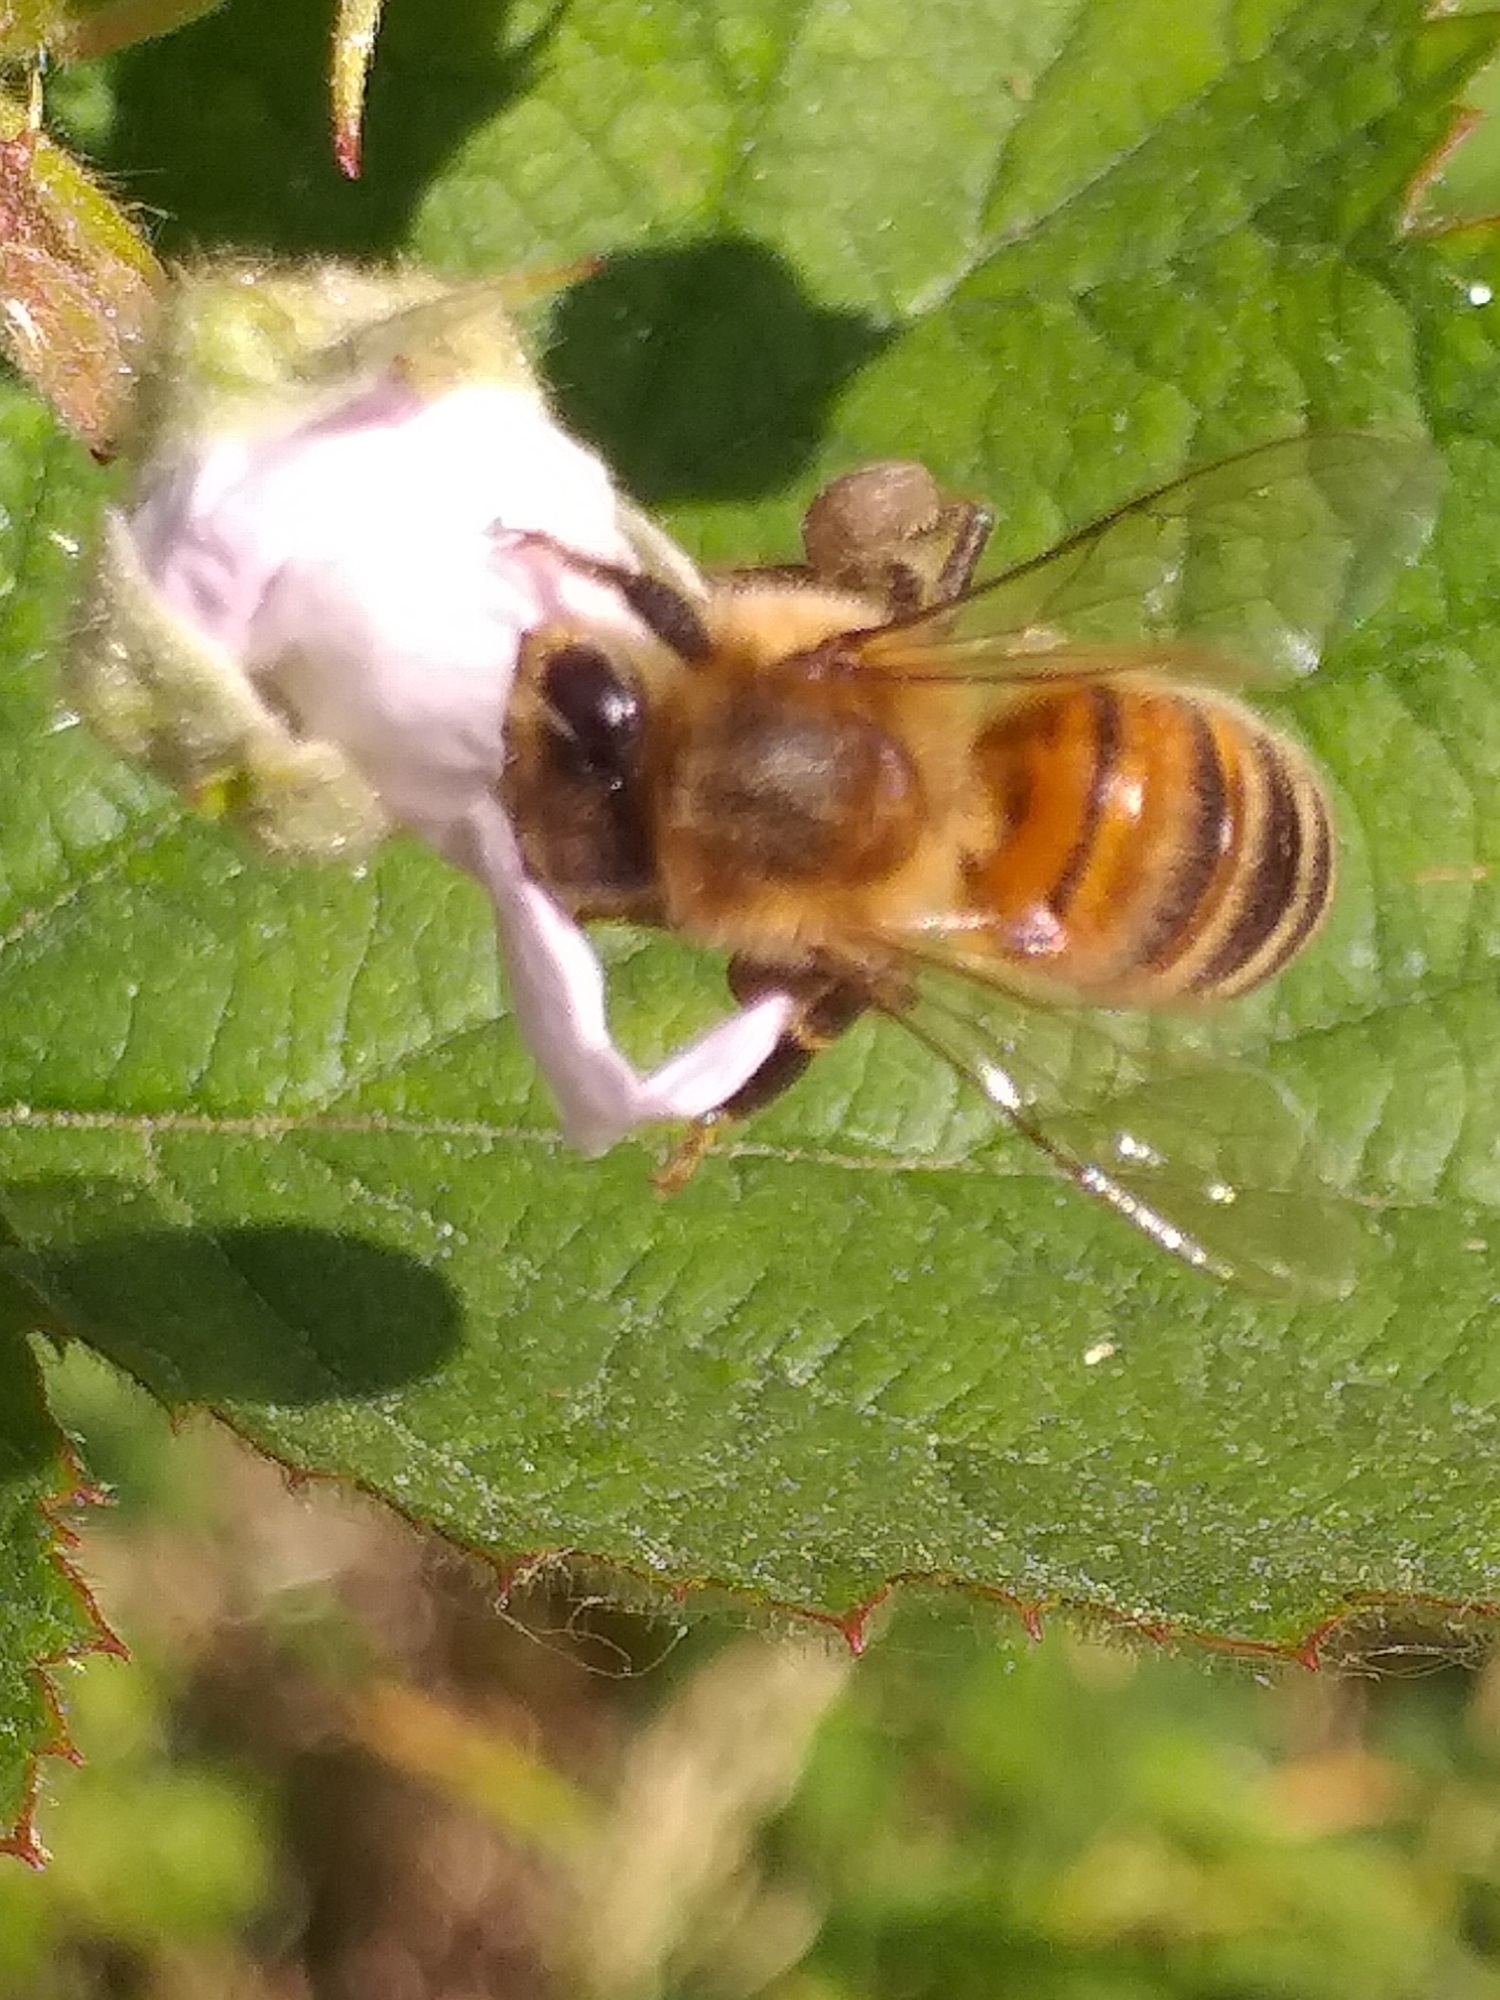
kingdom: Animalia
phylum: Arthropoda
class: Insecta
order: Hymenoptera
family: Apidae
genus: Apis
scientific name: Apis mellifera
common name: Honey bee
